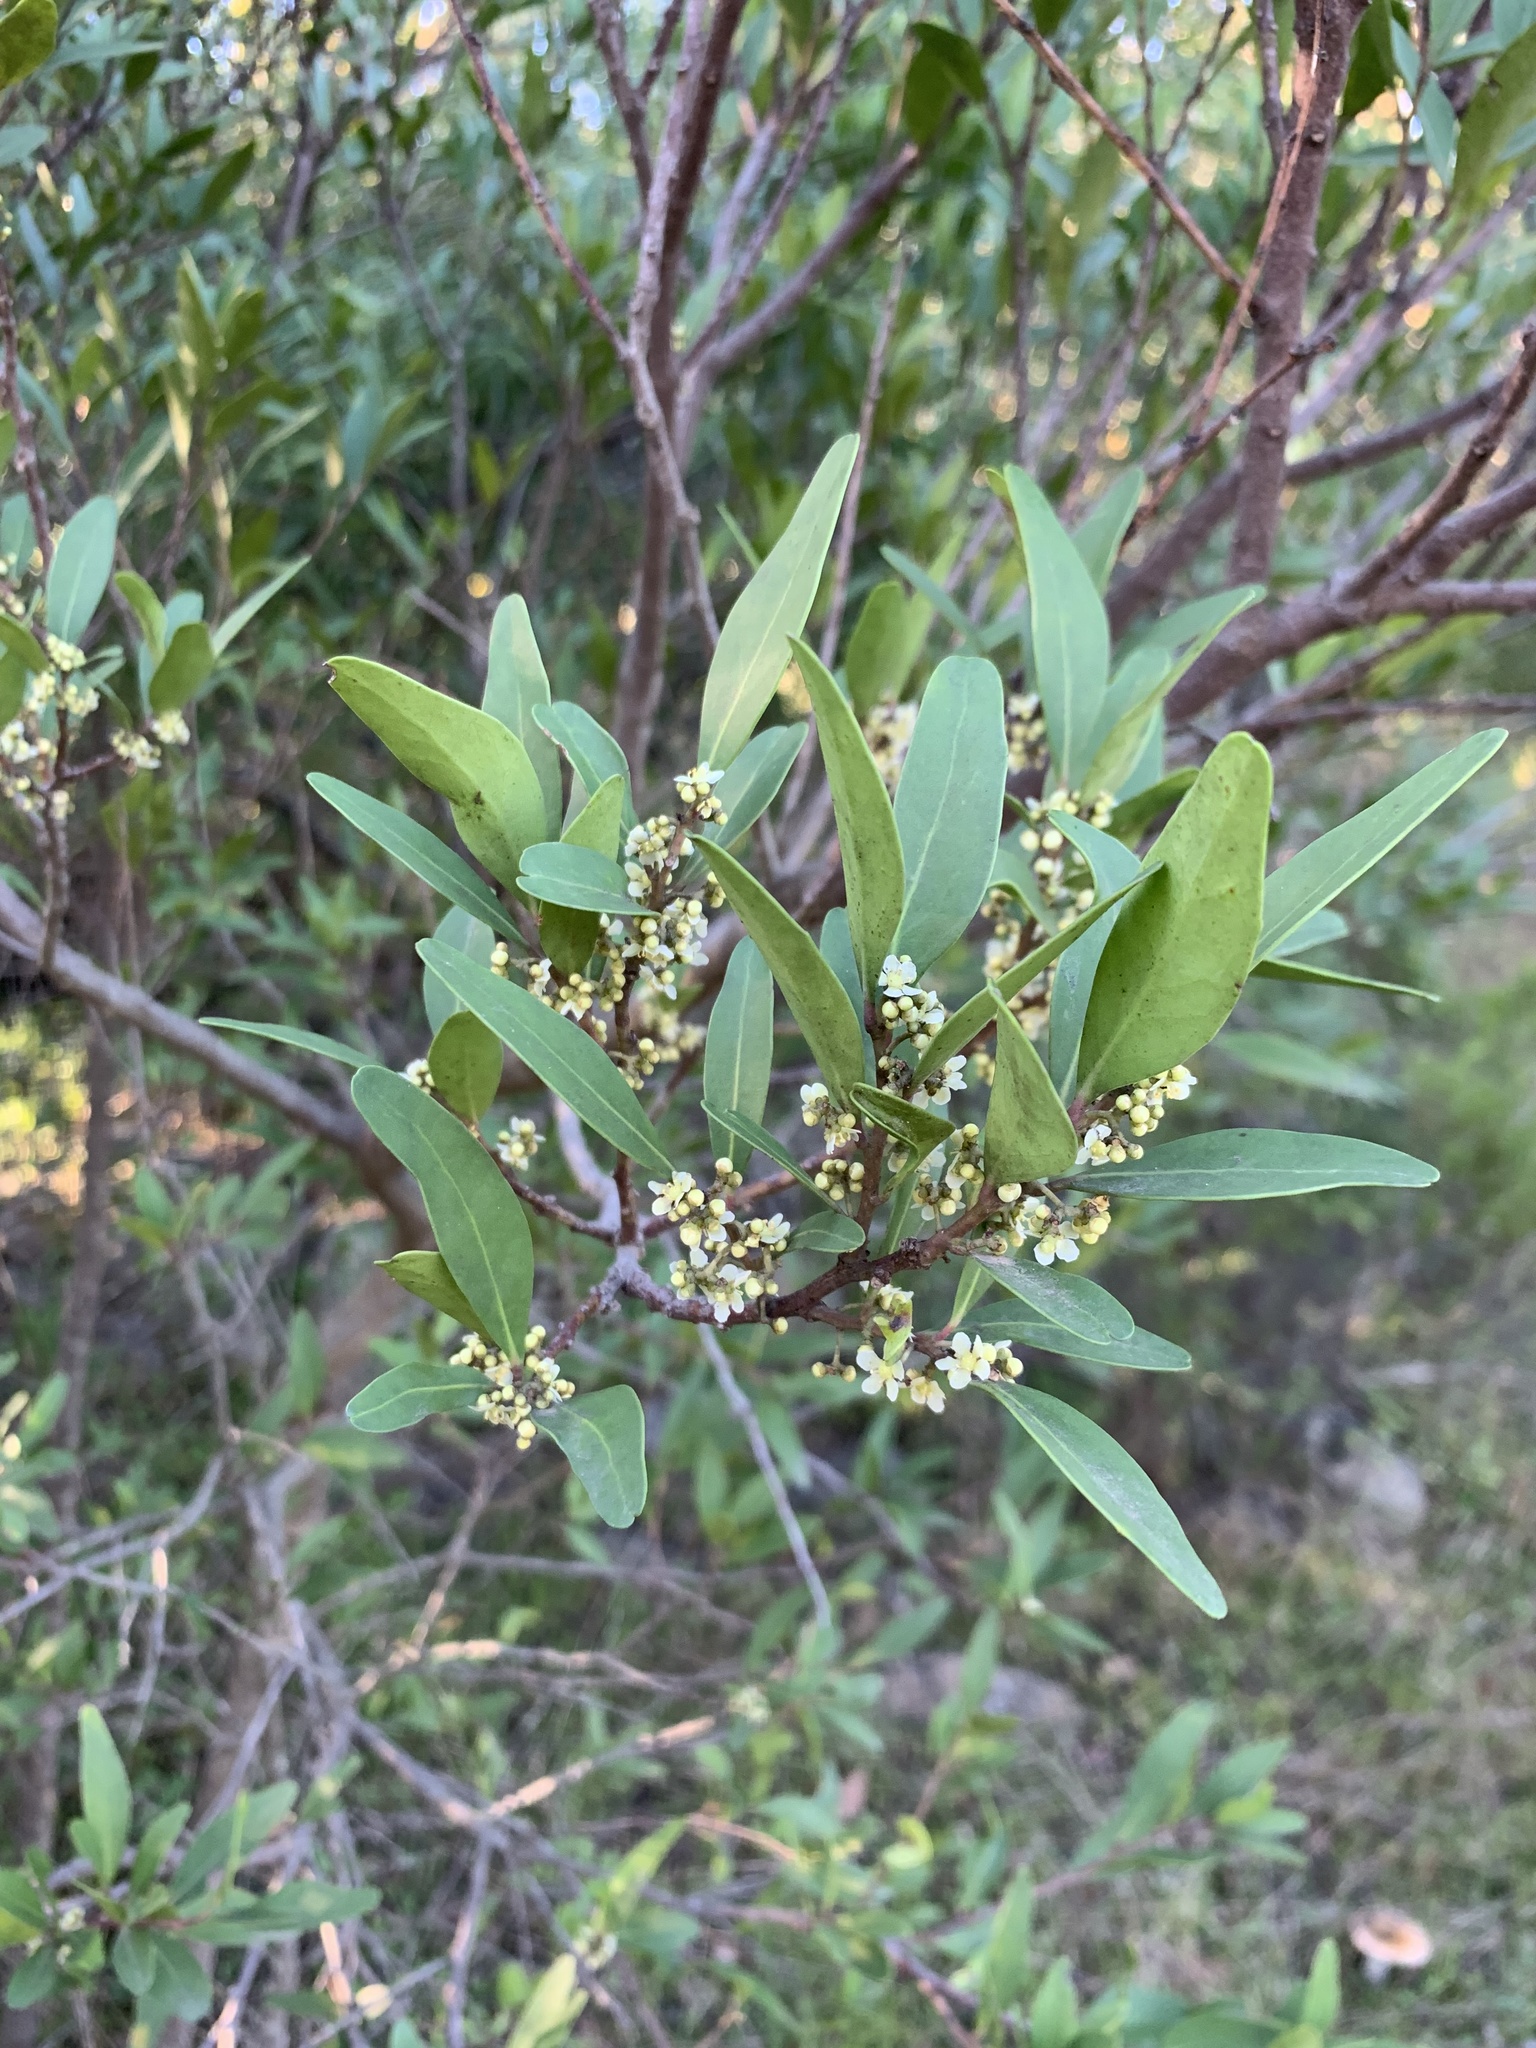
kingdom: Plantae
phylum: Tracheophyta
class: Magnoliopsida
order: Celastrales
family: Celastraceae
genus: Gymnosporia
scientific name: Gymnosporia laurina
